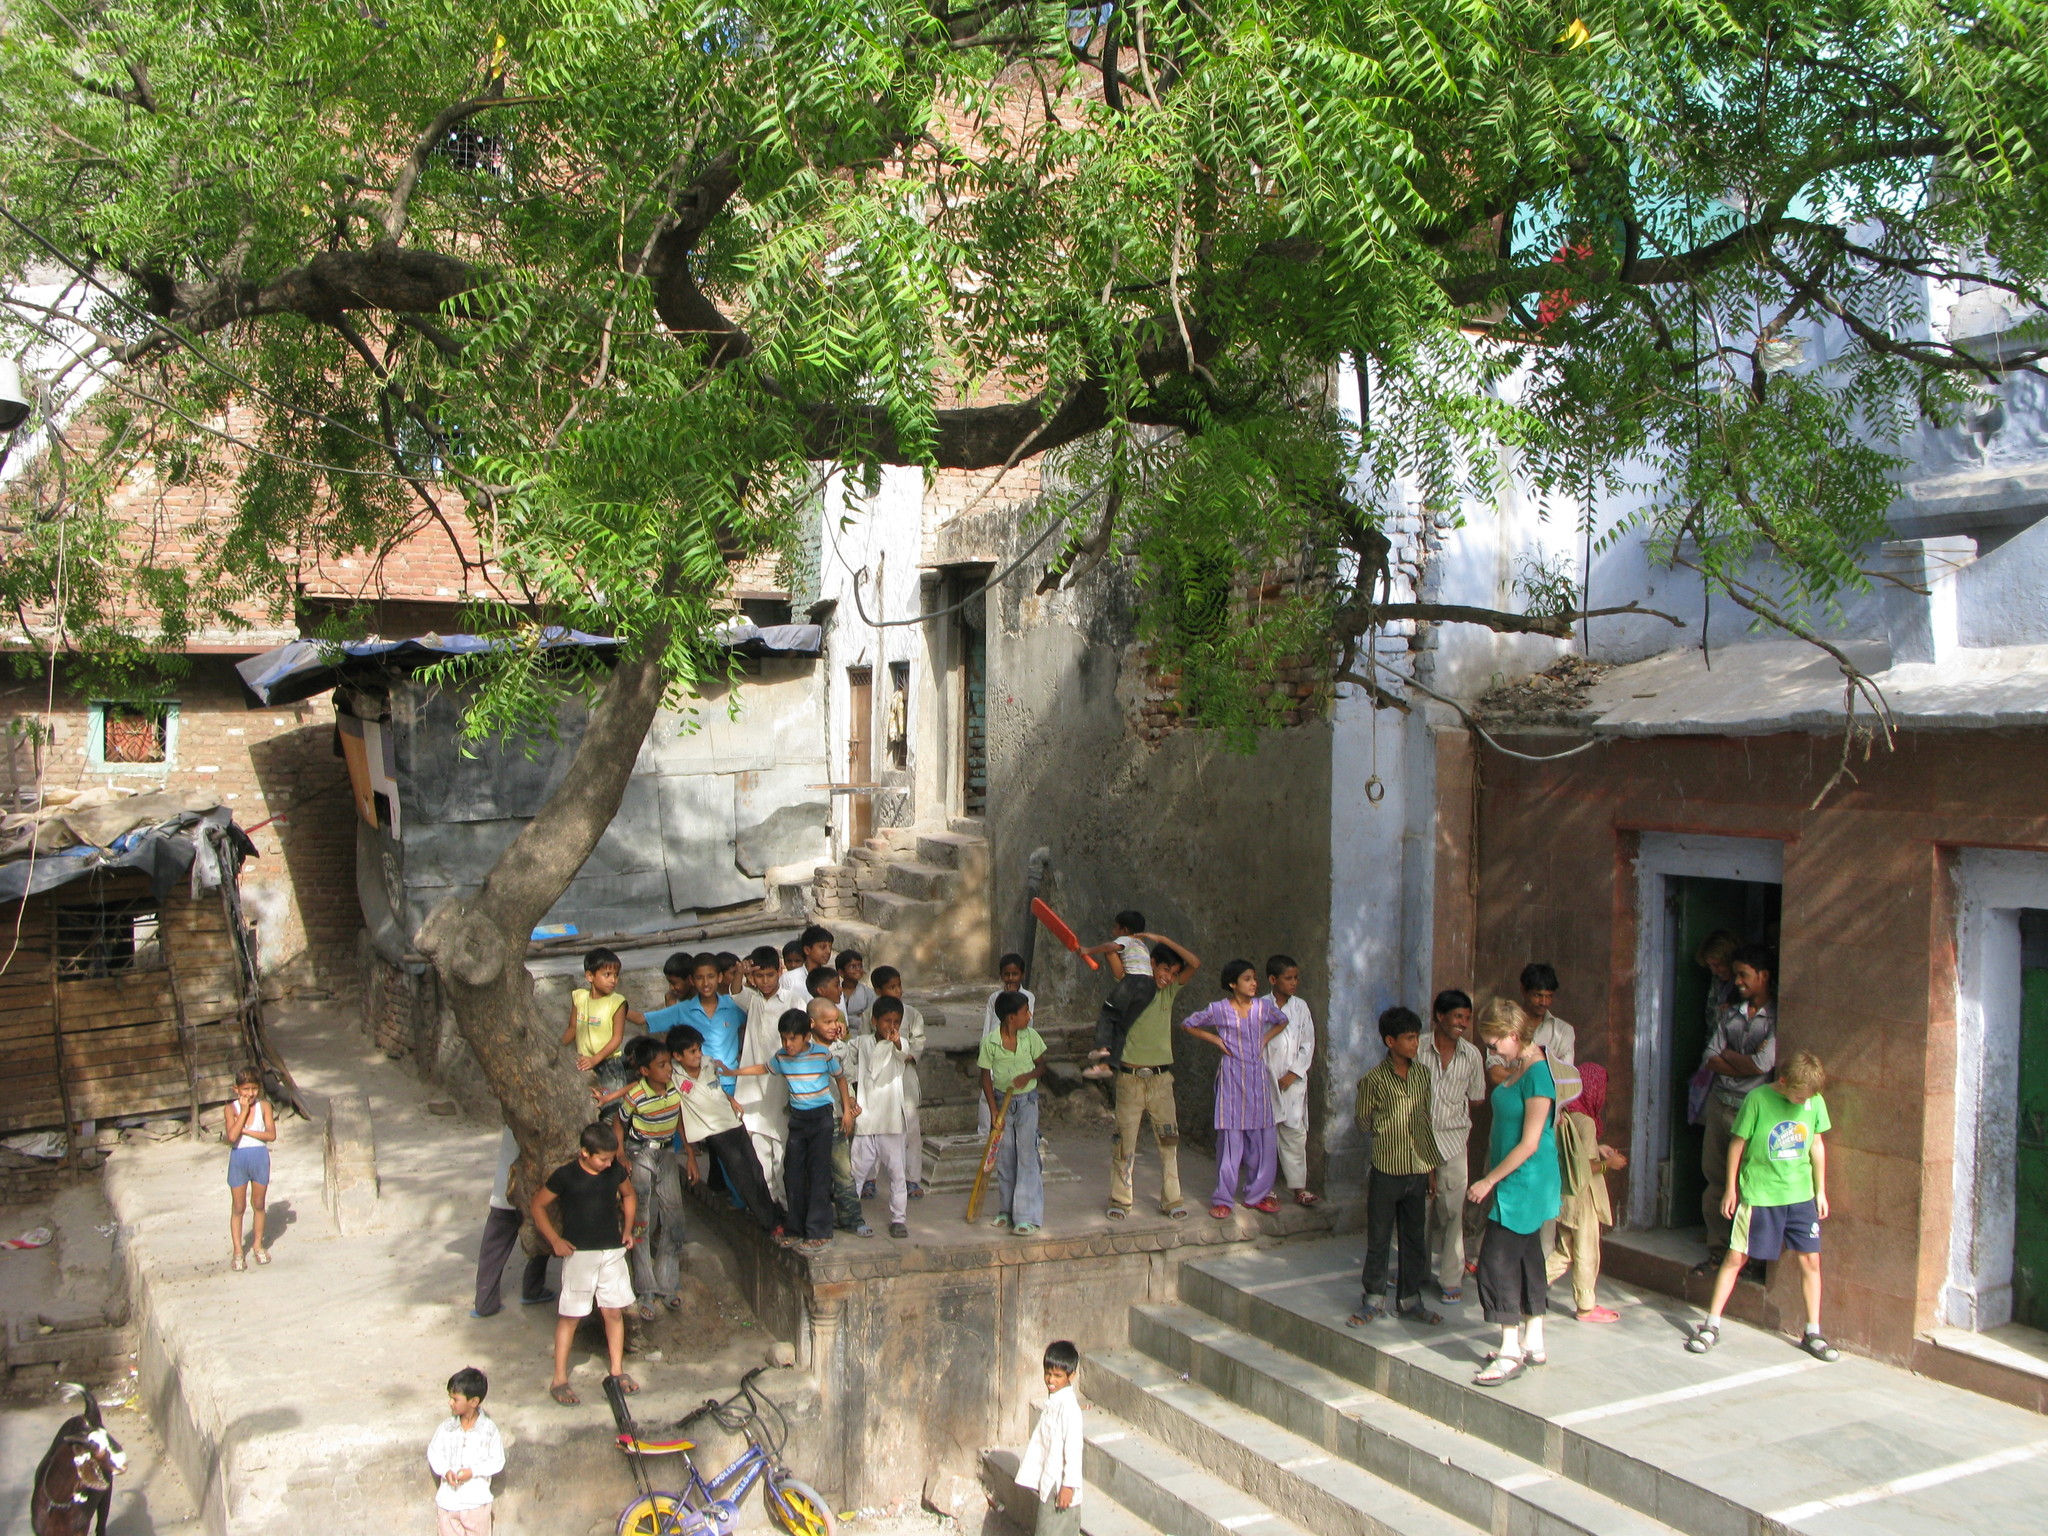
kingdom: Plantae
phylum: Tracheophyta
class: Magnoliopsida
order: Sapindales
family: Meliaceae
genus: Azadirachta
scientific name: Azadirachta indica
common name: Neem
